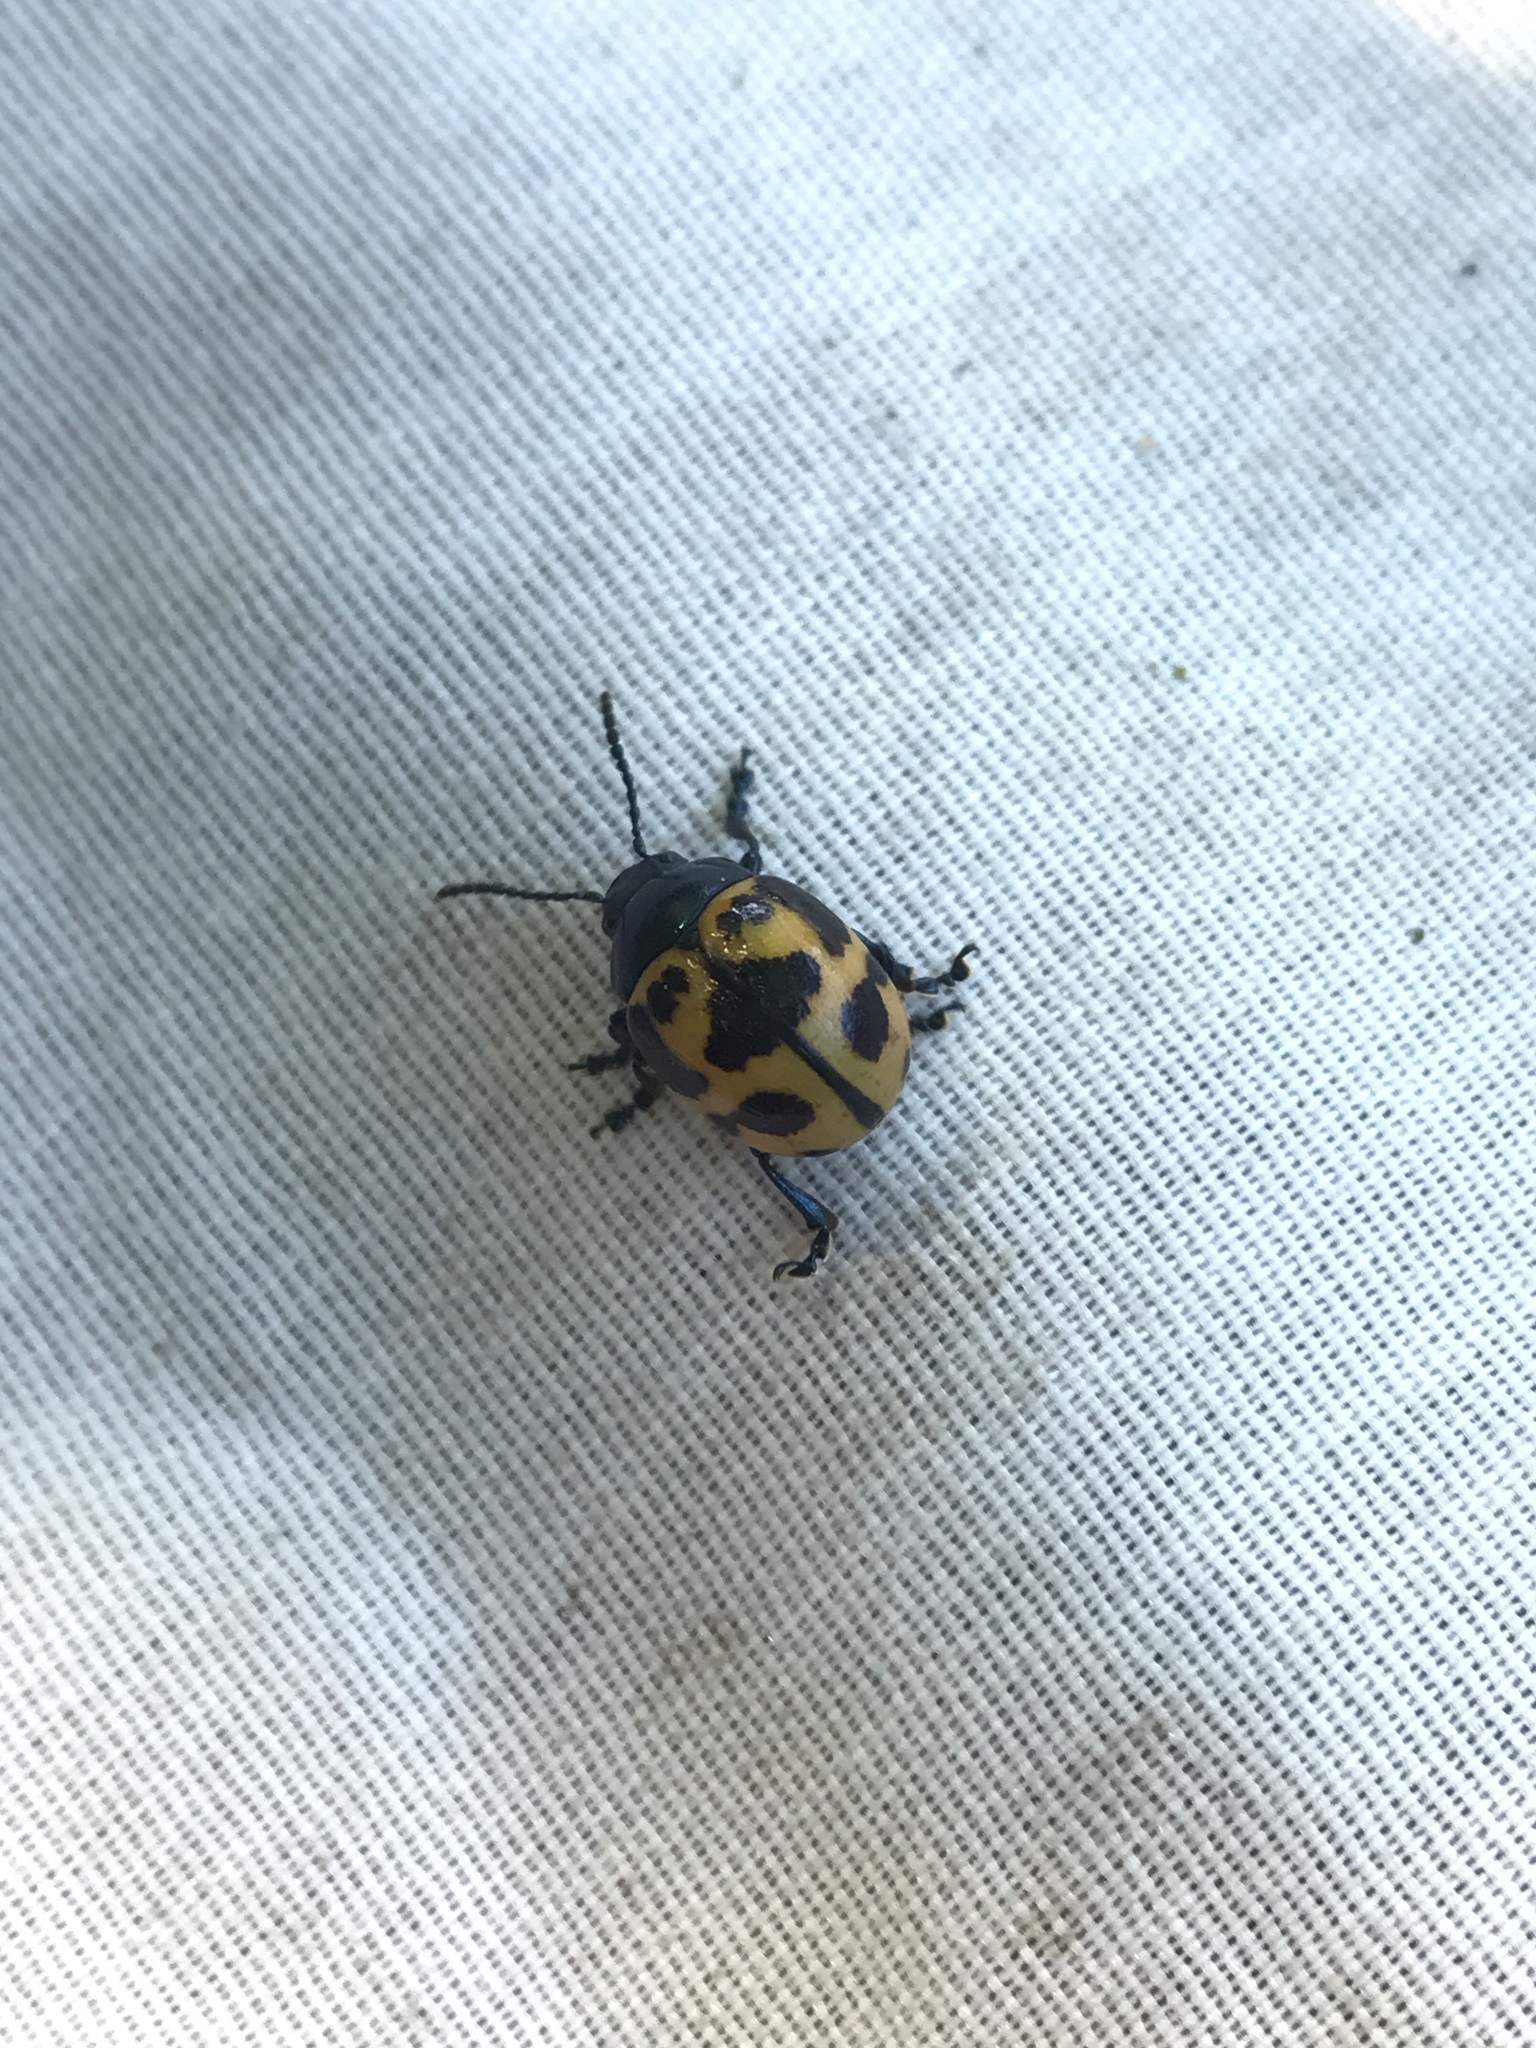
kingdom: Animalia
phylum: Arthropoda
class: Insecta
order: Coleoptera
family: Chrysomelidae
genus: Labidomera
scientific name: Labidomera clivicollis
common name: Swamp milkweed leaf beetle
